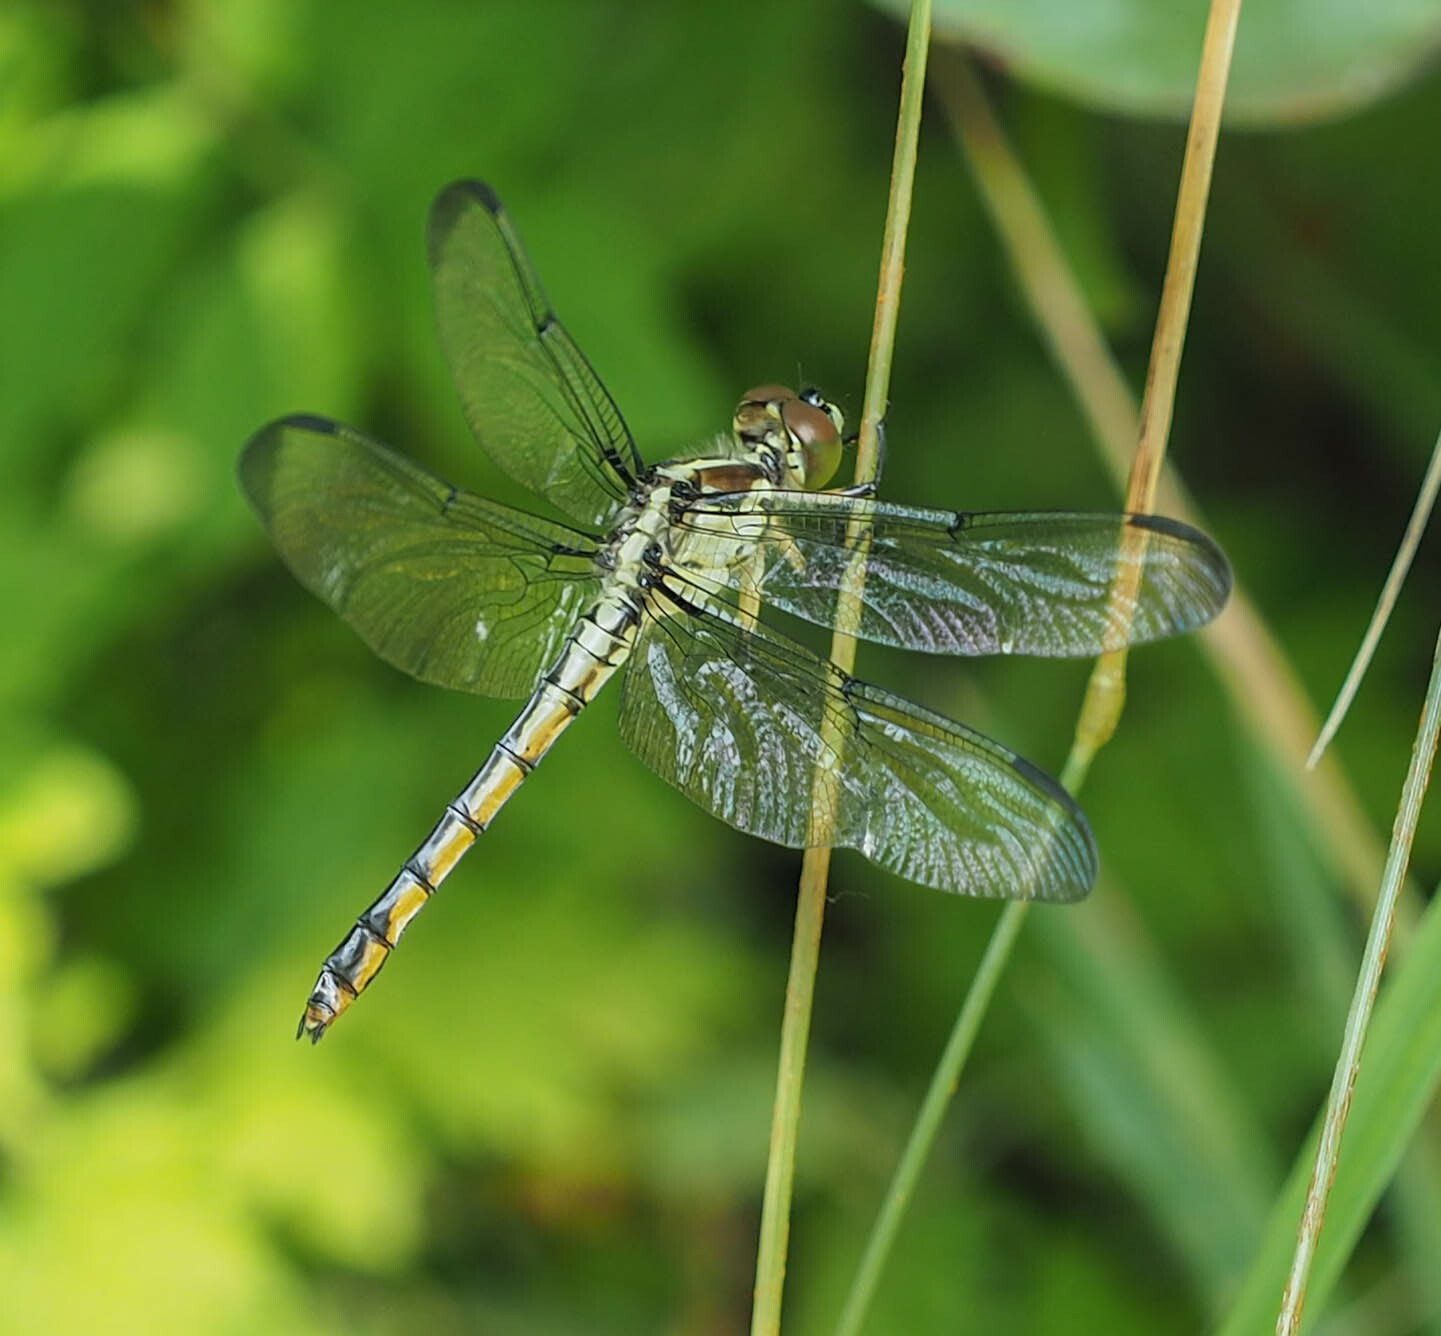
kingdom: Animalia
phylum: Arthropoda
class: Insecta
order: Odonata
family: Libellulidae
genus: Libellula
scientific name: Libellula vibrans
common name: Great blue skimmer
